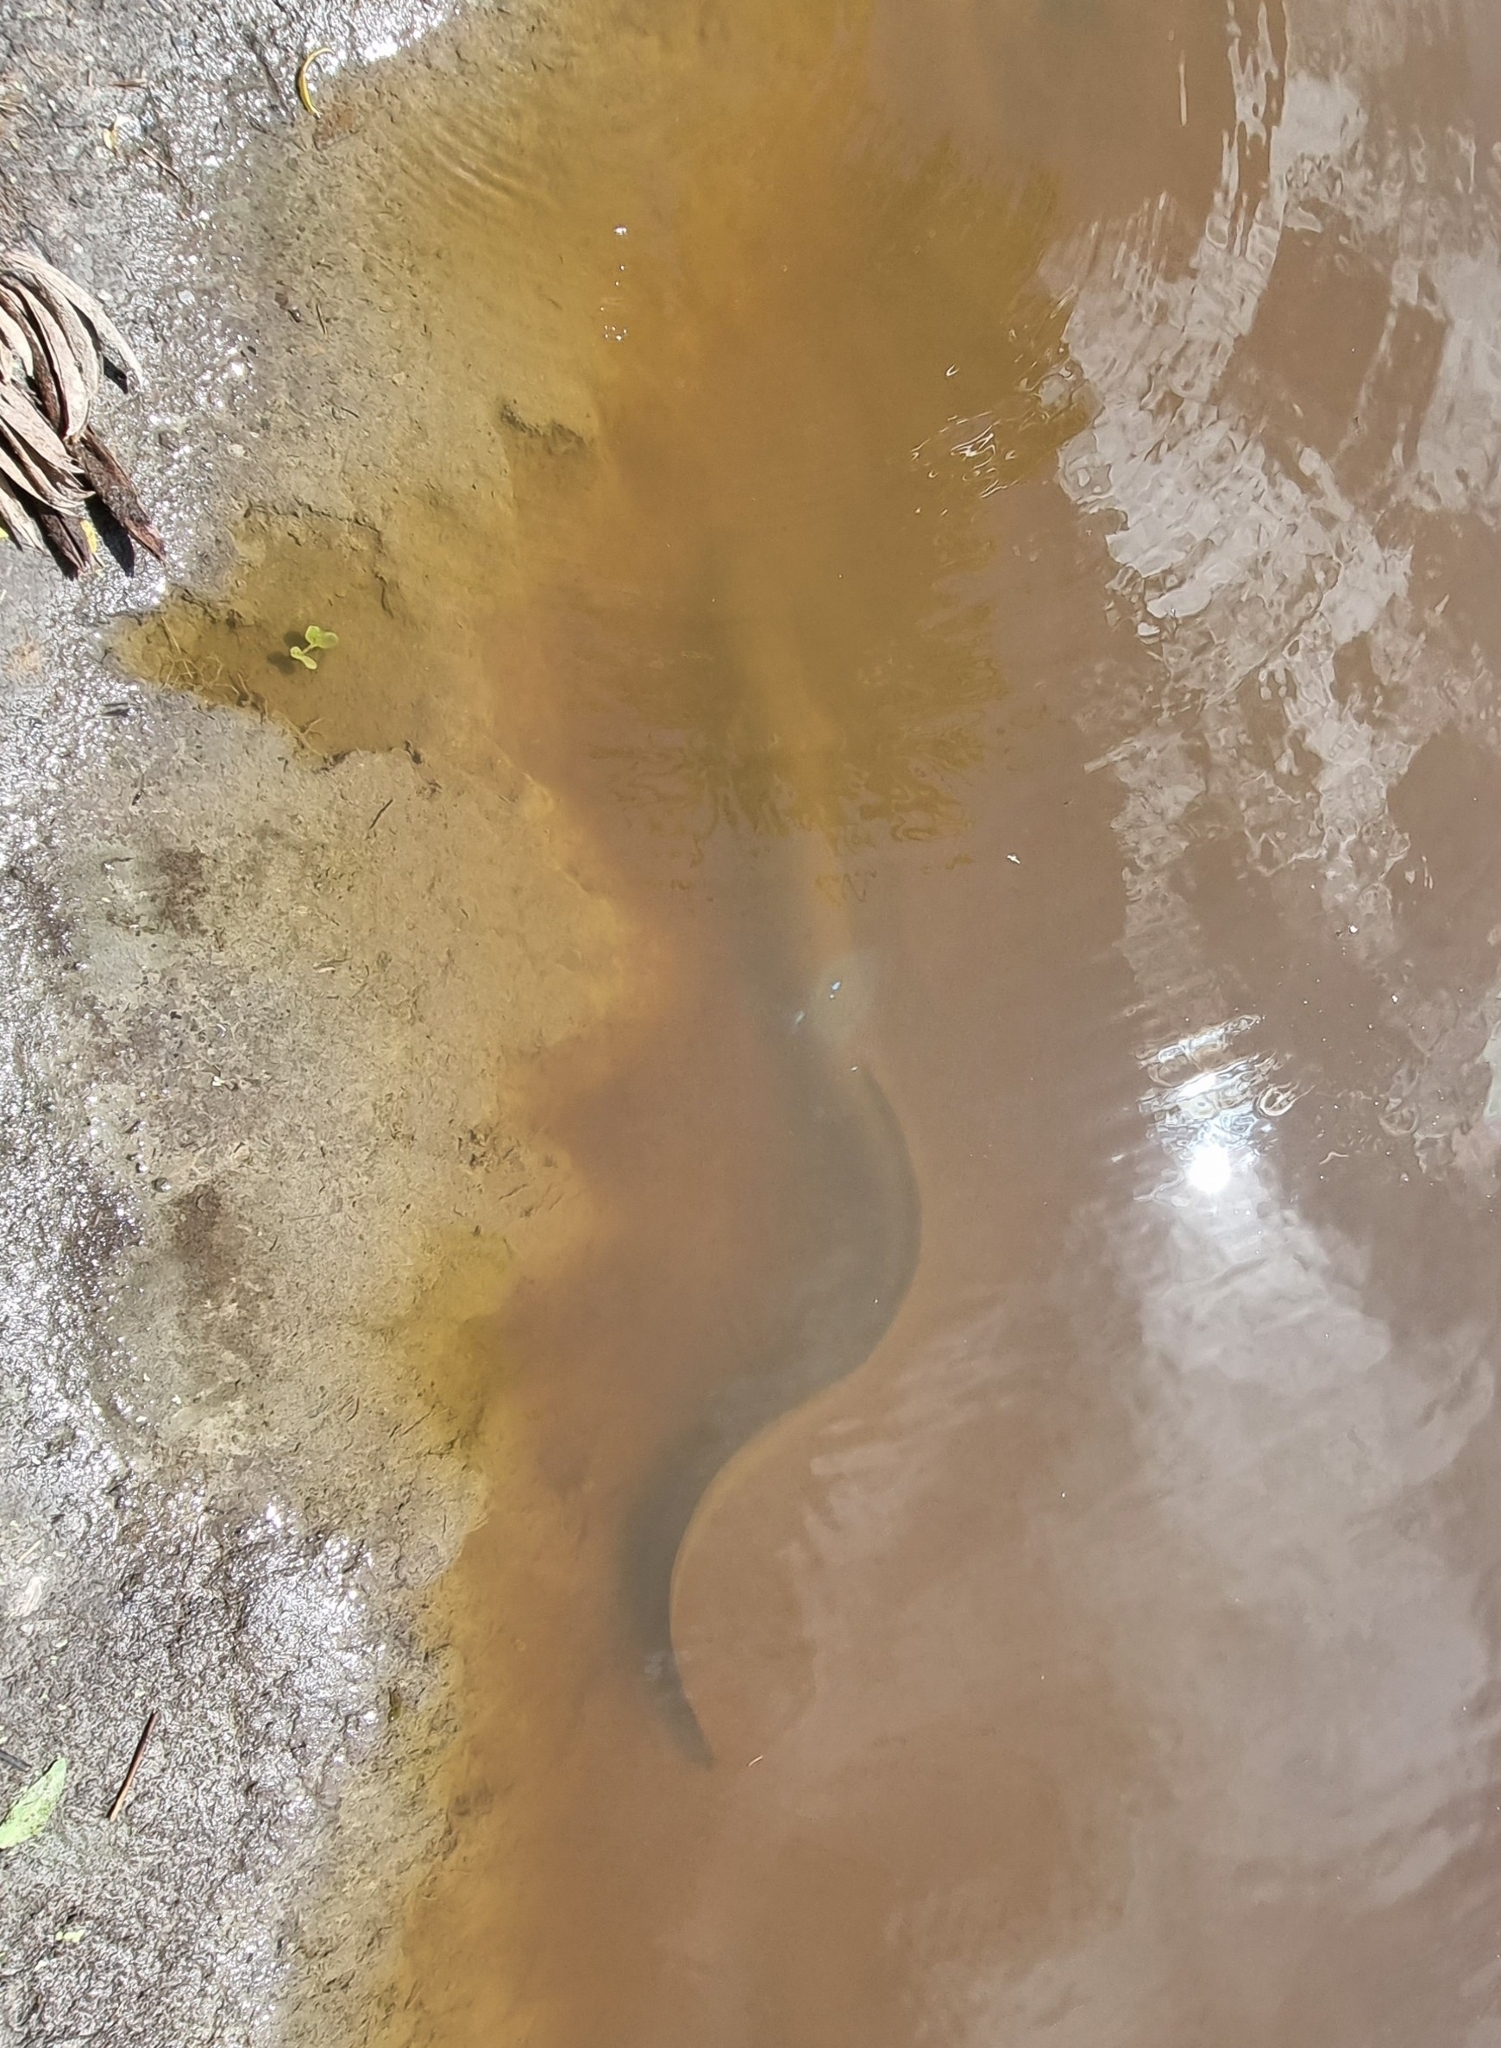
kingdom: Animalia
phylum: Chordata
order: Anguilliformes
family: Anguillidae
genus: Anguilla
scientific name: Anguilla australis
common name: Shortfin eel
